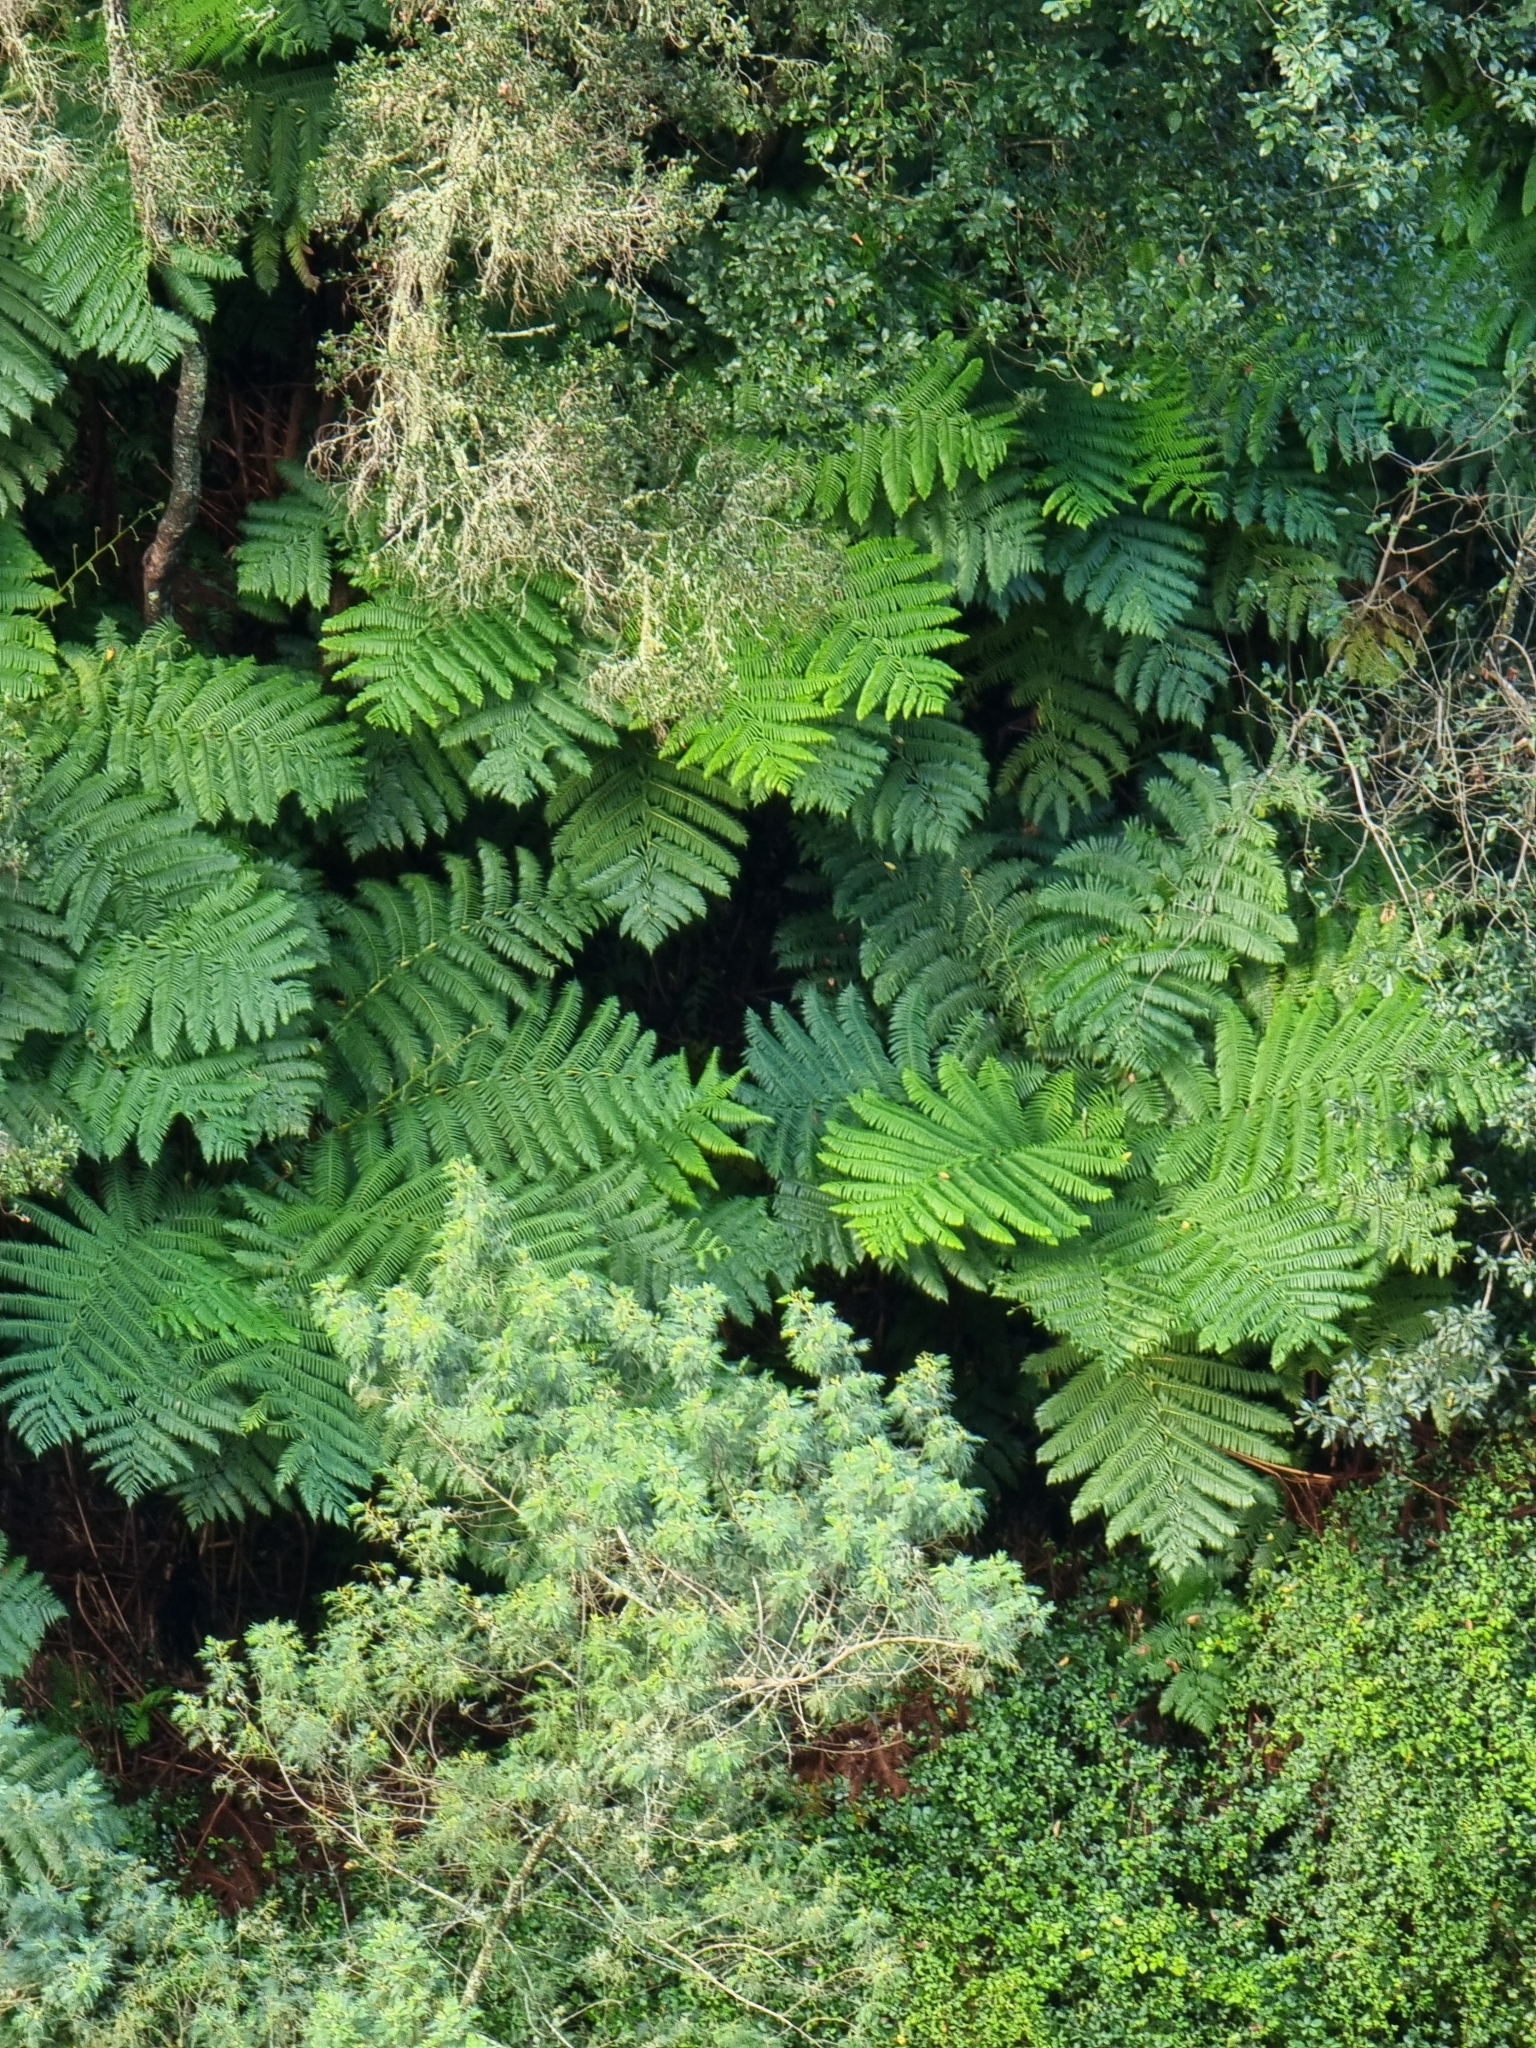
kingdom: Plantae
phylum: Tracheophyta
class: Polypodiopsida
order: Cyatheales
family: Cyatheaceae
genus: Sphaeropteris
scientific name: Sphaeropteris cooperi
